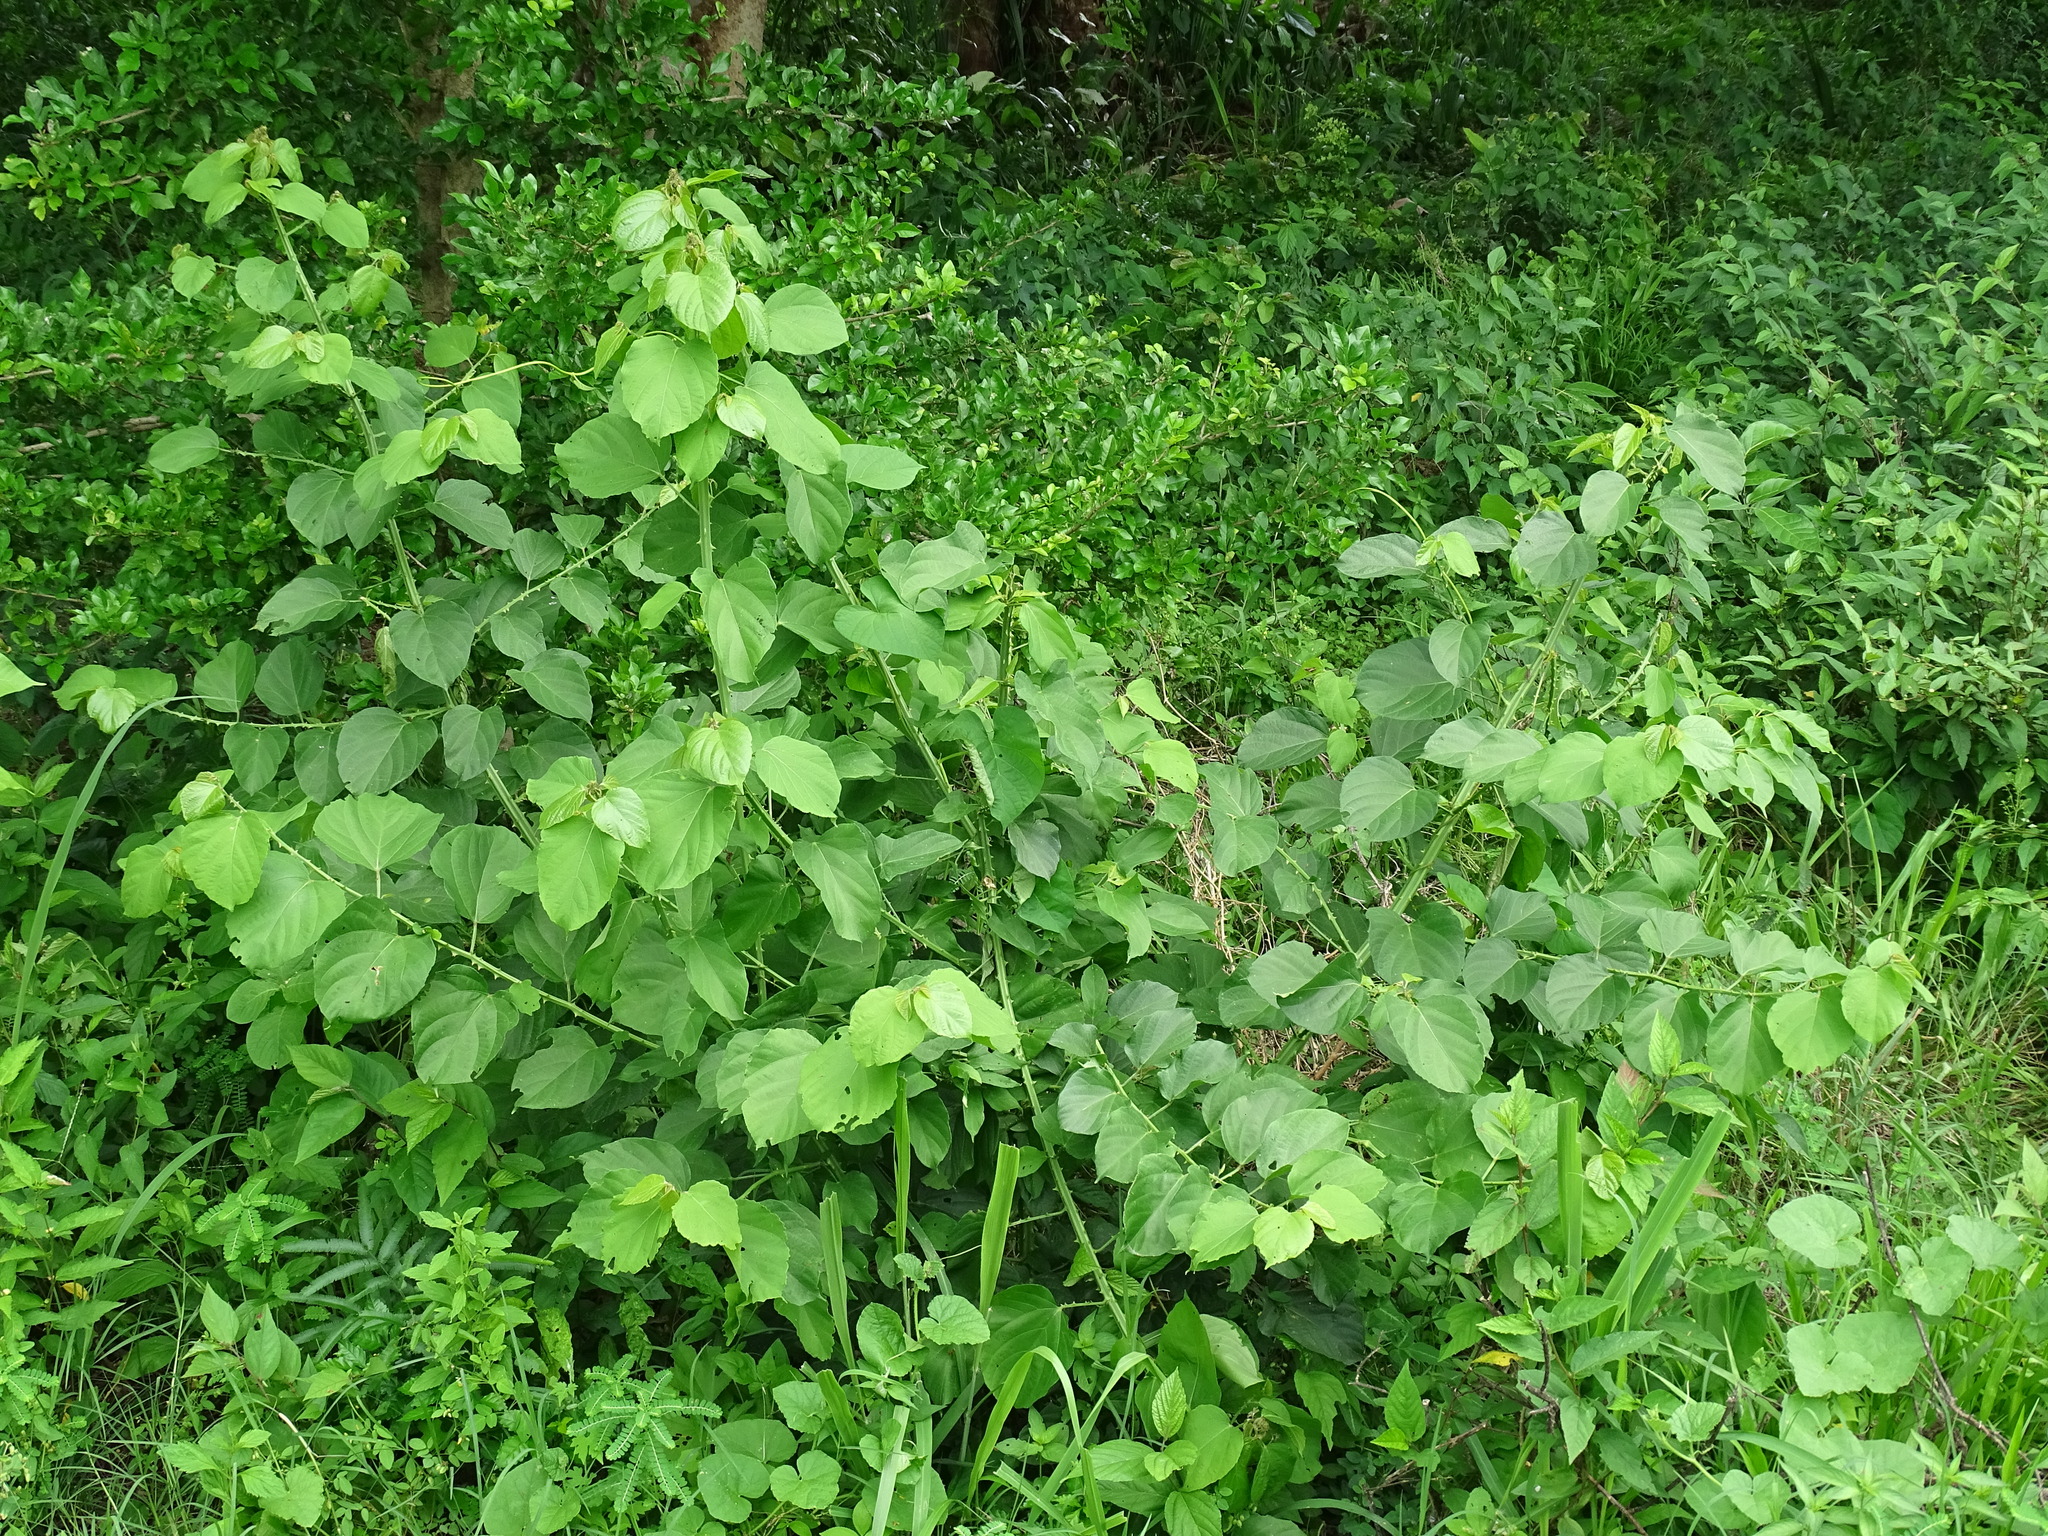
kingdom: Plantae
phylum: Tracheophyta
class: Magnoliopsida
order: Malvales
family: Malvaceae
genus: Byttneria
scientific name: Byttneria aculeata
